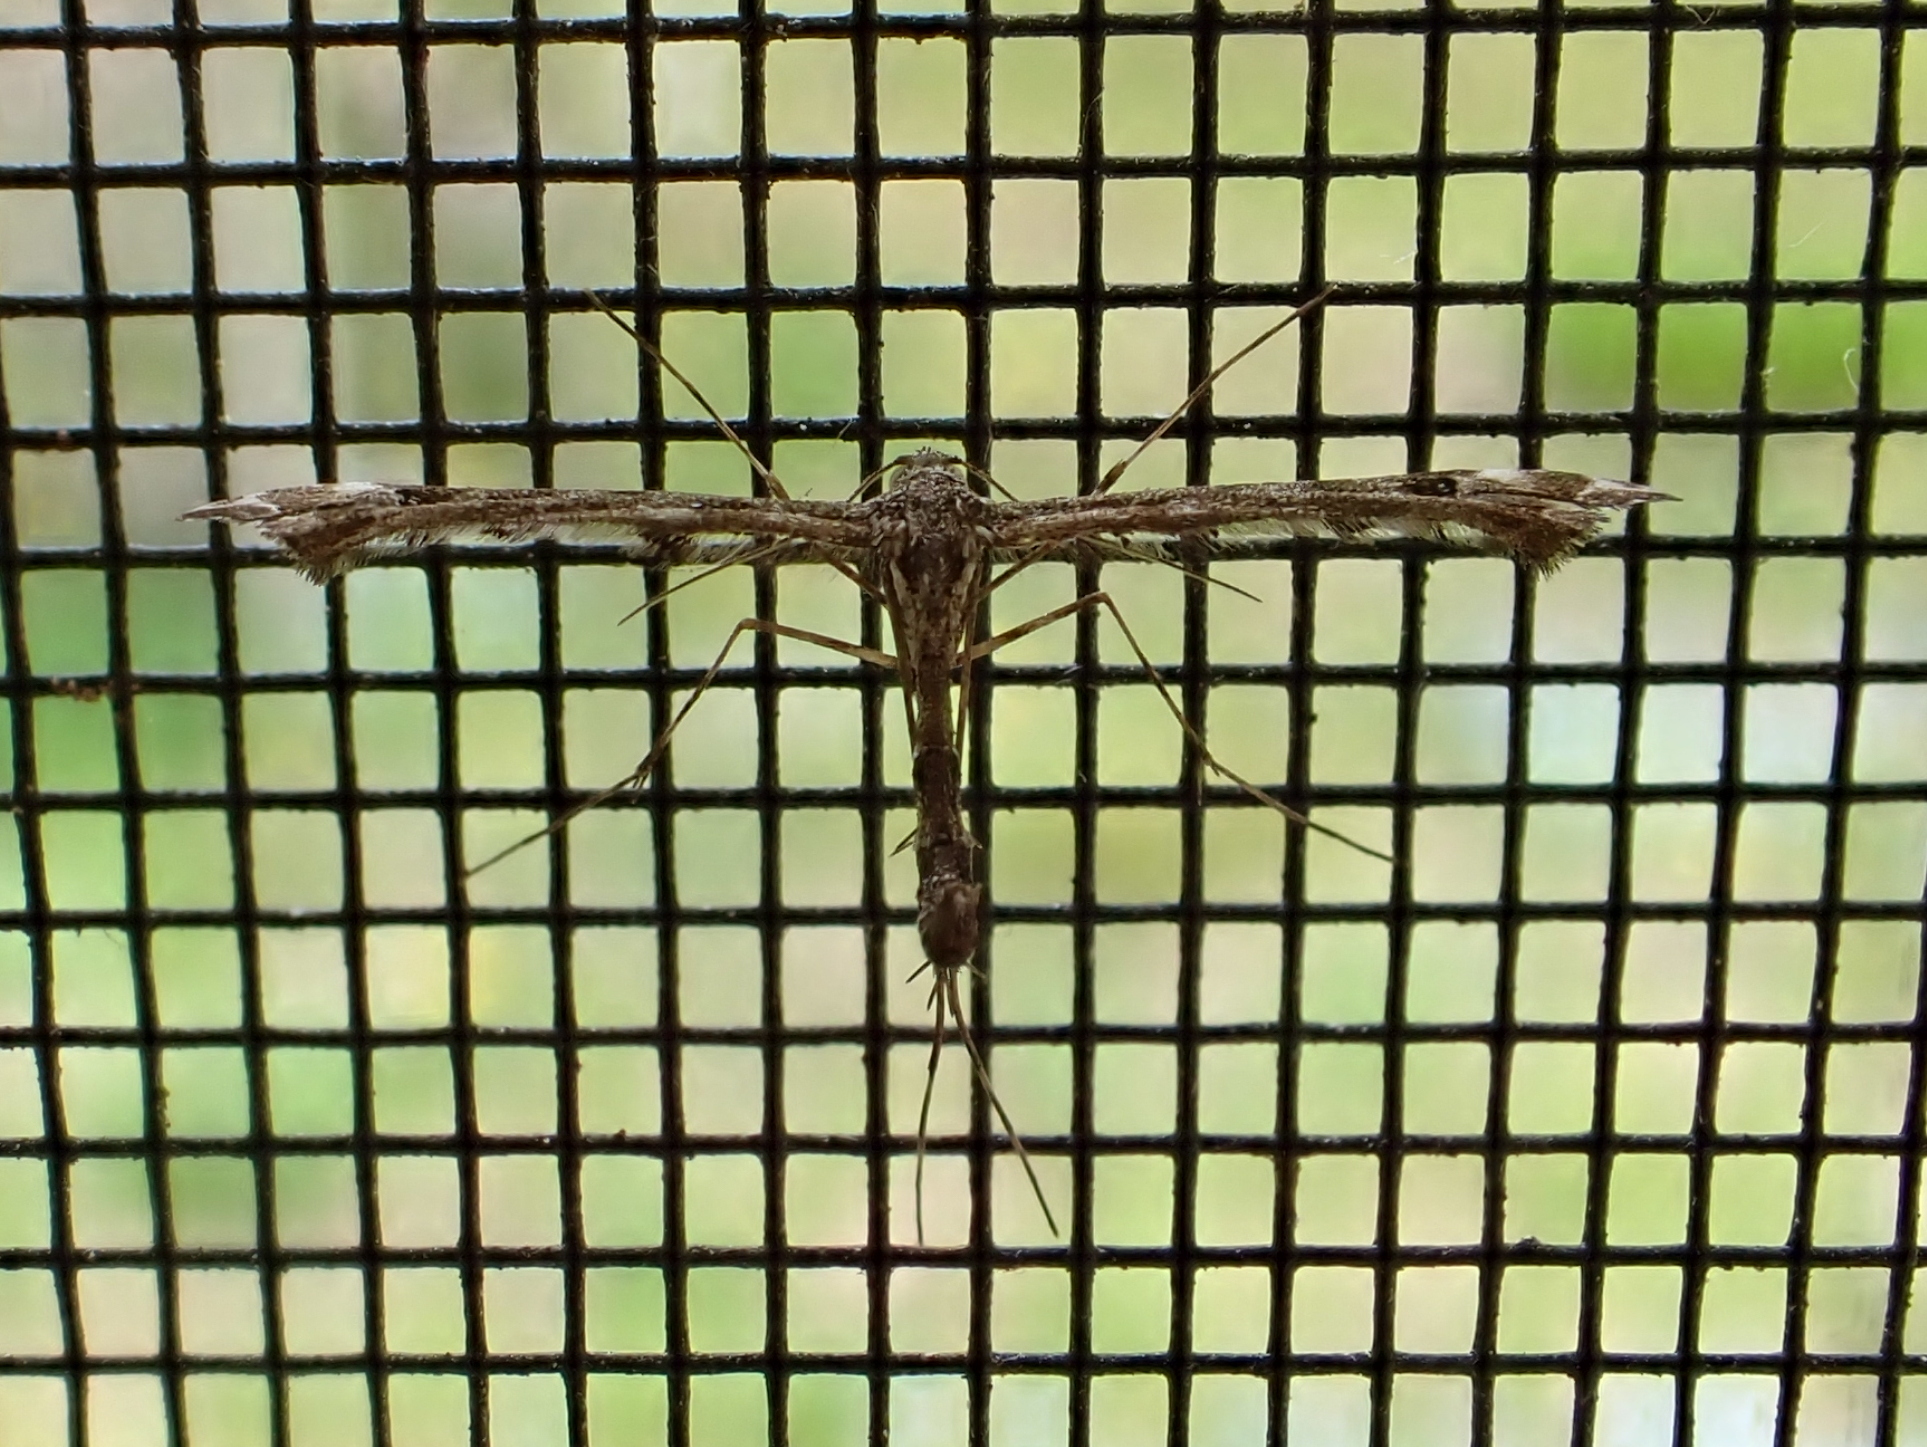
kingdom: Animalia
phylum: Arthropoda
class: Insecta
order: Lepidoptera
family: Pterophoridae
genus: Amblyptilia
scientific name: Amblyptilia pica
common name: Geranium plume moth
